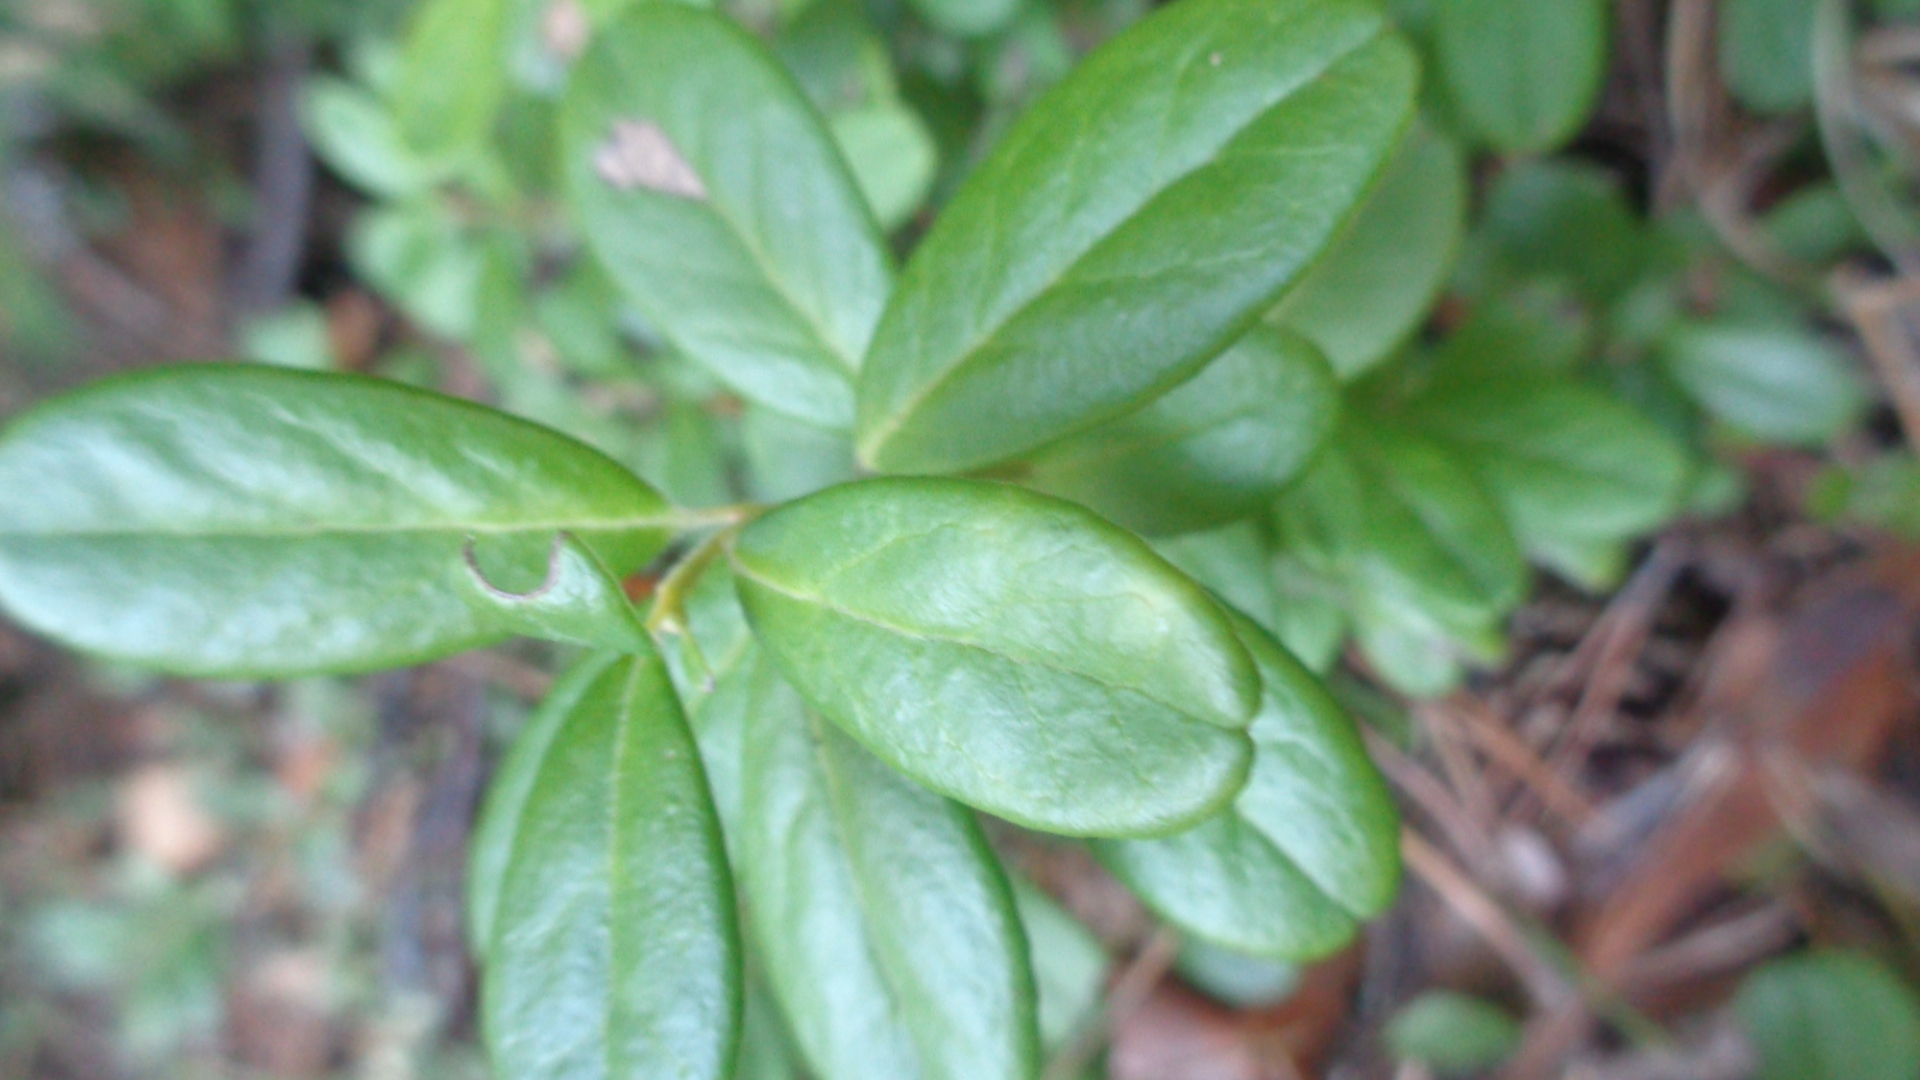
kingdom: Plantae
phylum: Tracheophyta
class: Magnoliopsida
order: Ericales
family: Ericaceae
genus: Vaccinium
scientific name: Vaccinium vitis-idaea
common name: Cowberry
